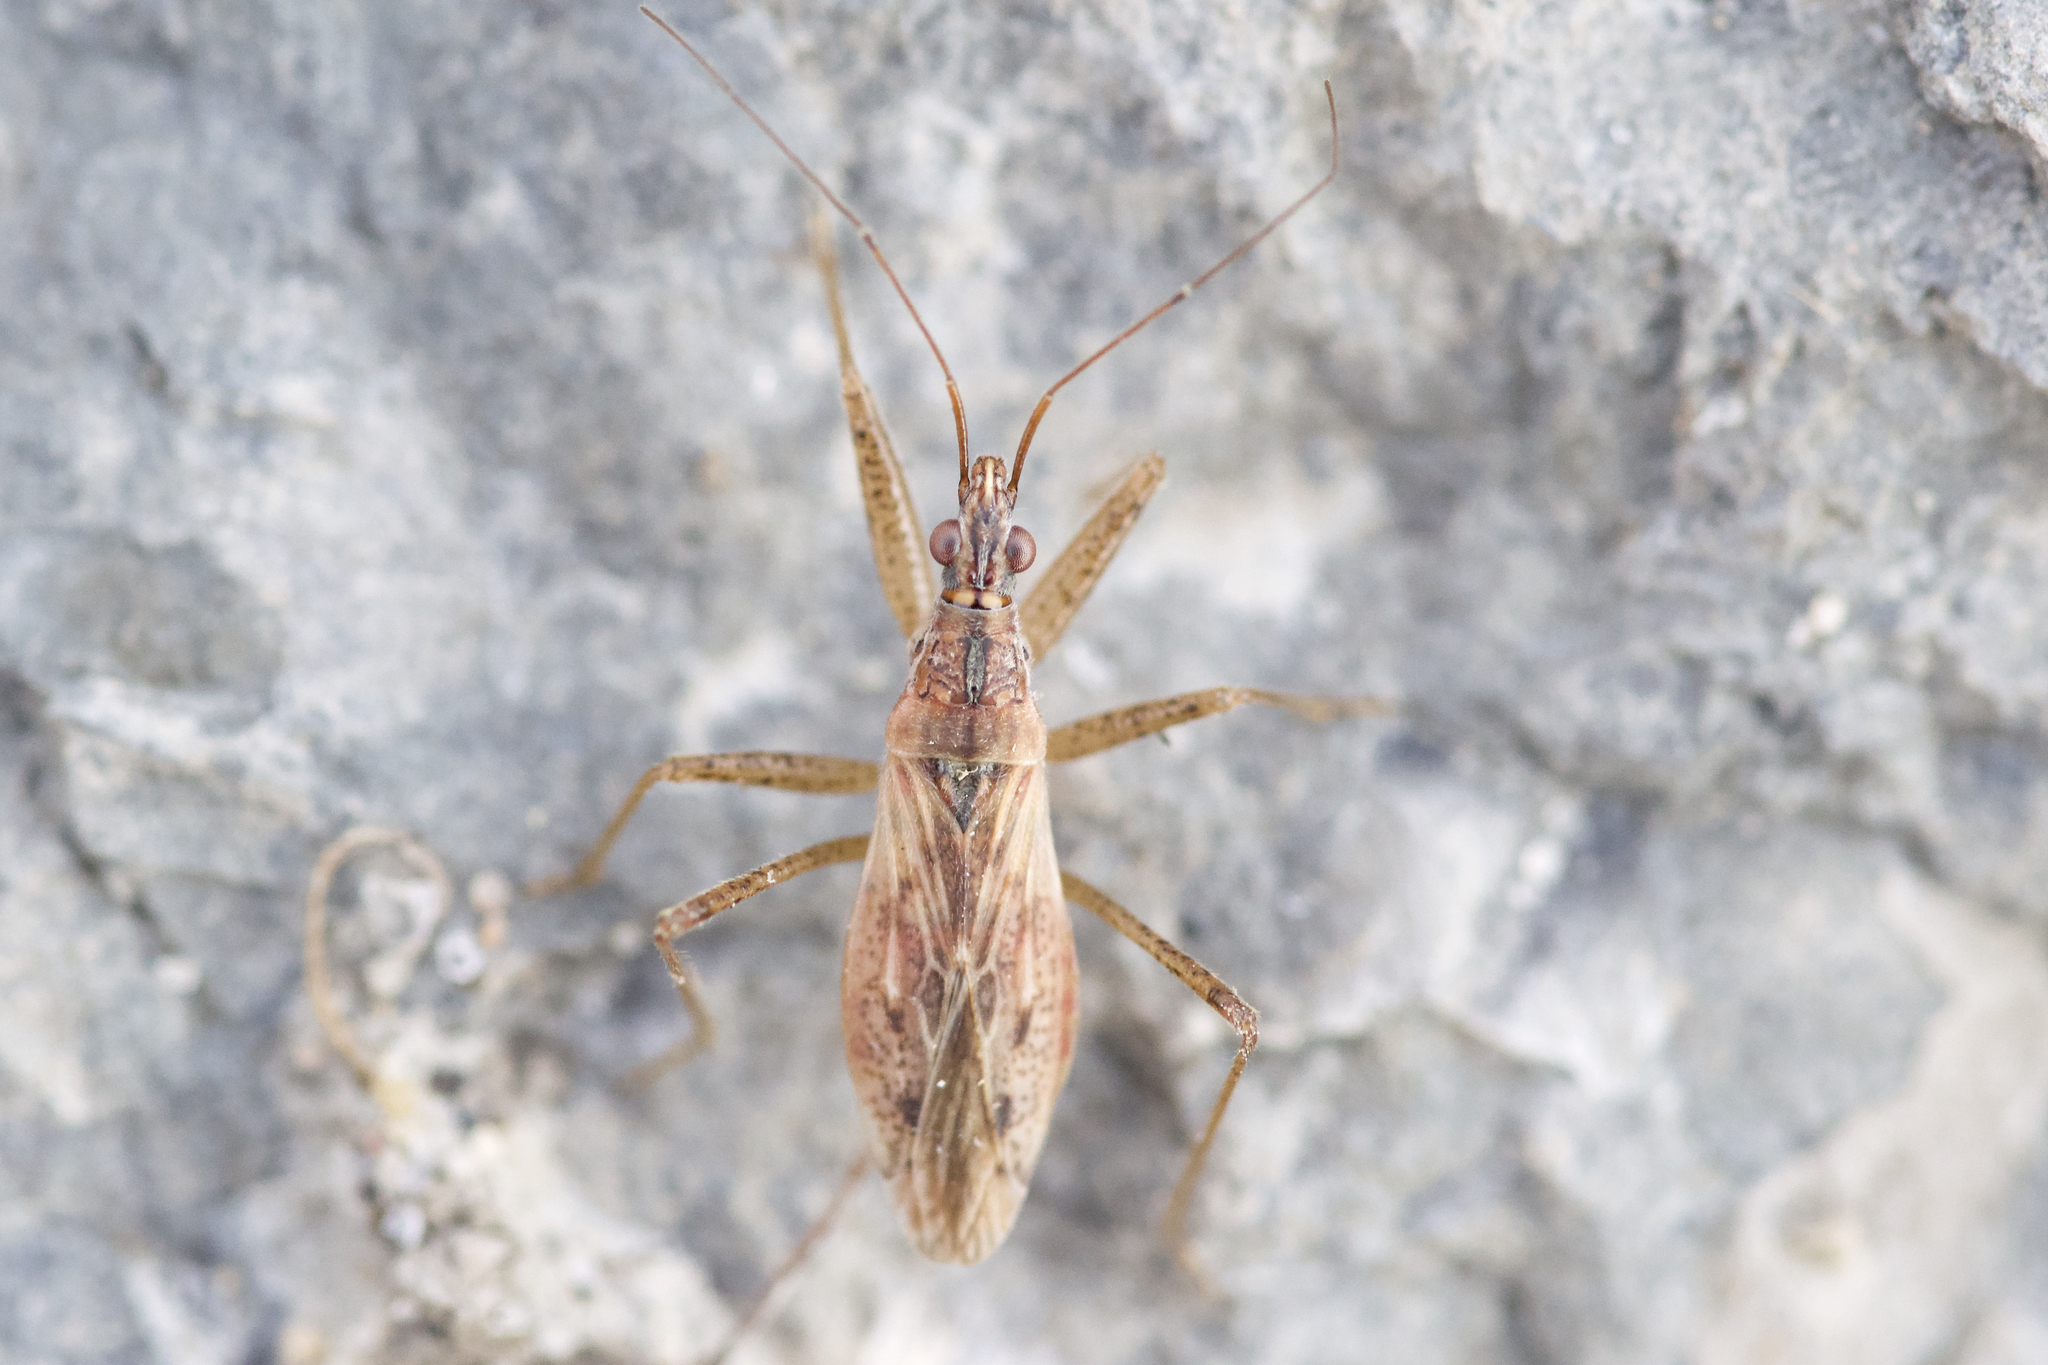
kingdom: Animalia
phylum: Arthropoda
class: Insecta
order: Hemiptera
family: Nabidae
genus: Nabis
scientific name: Nabis rufusculus
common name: Short-winged nabis
